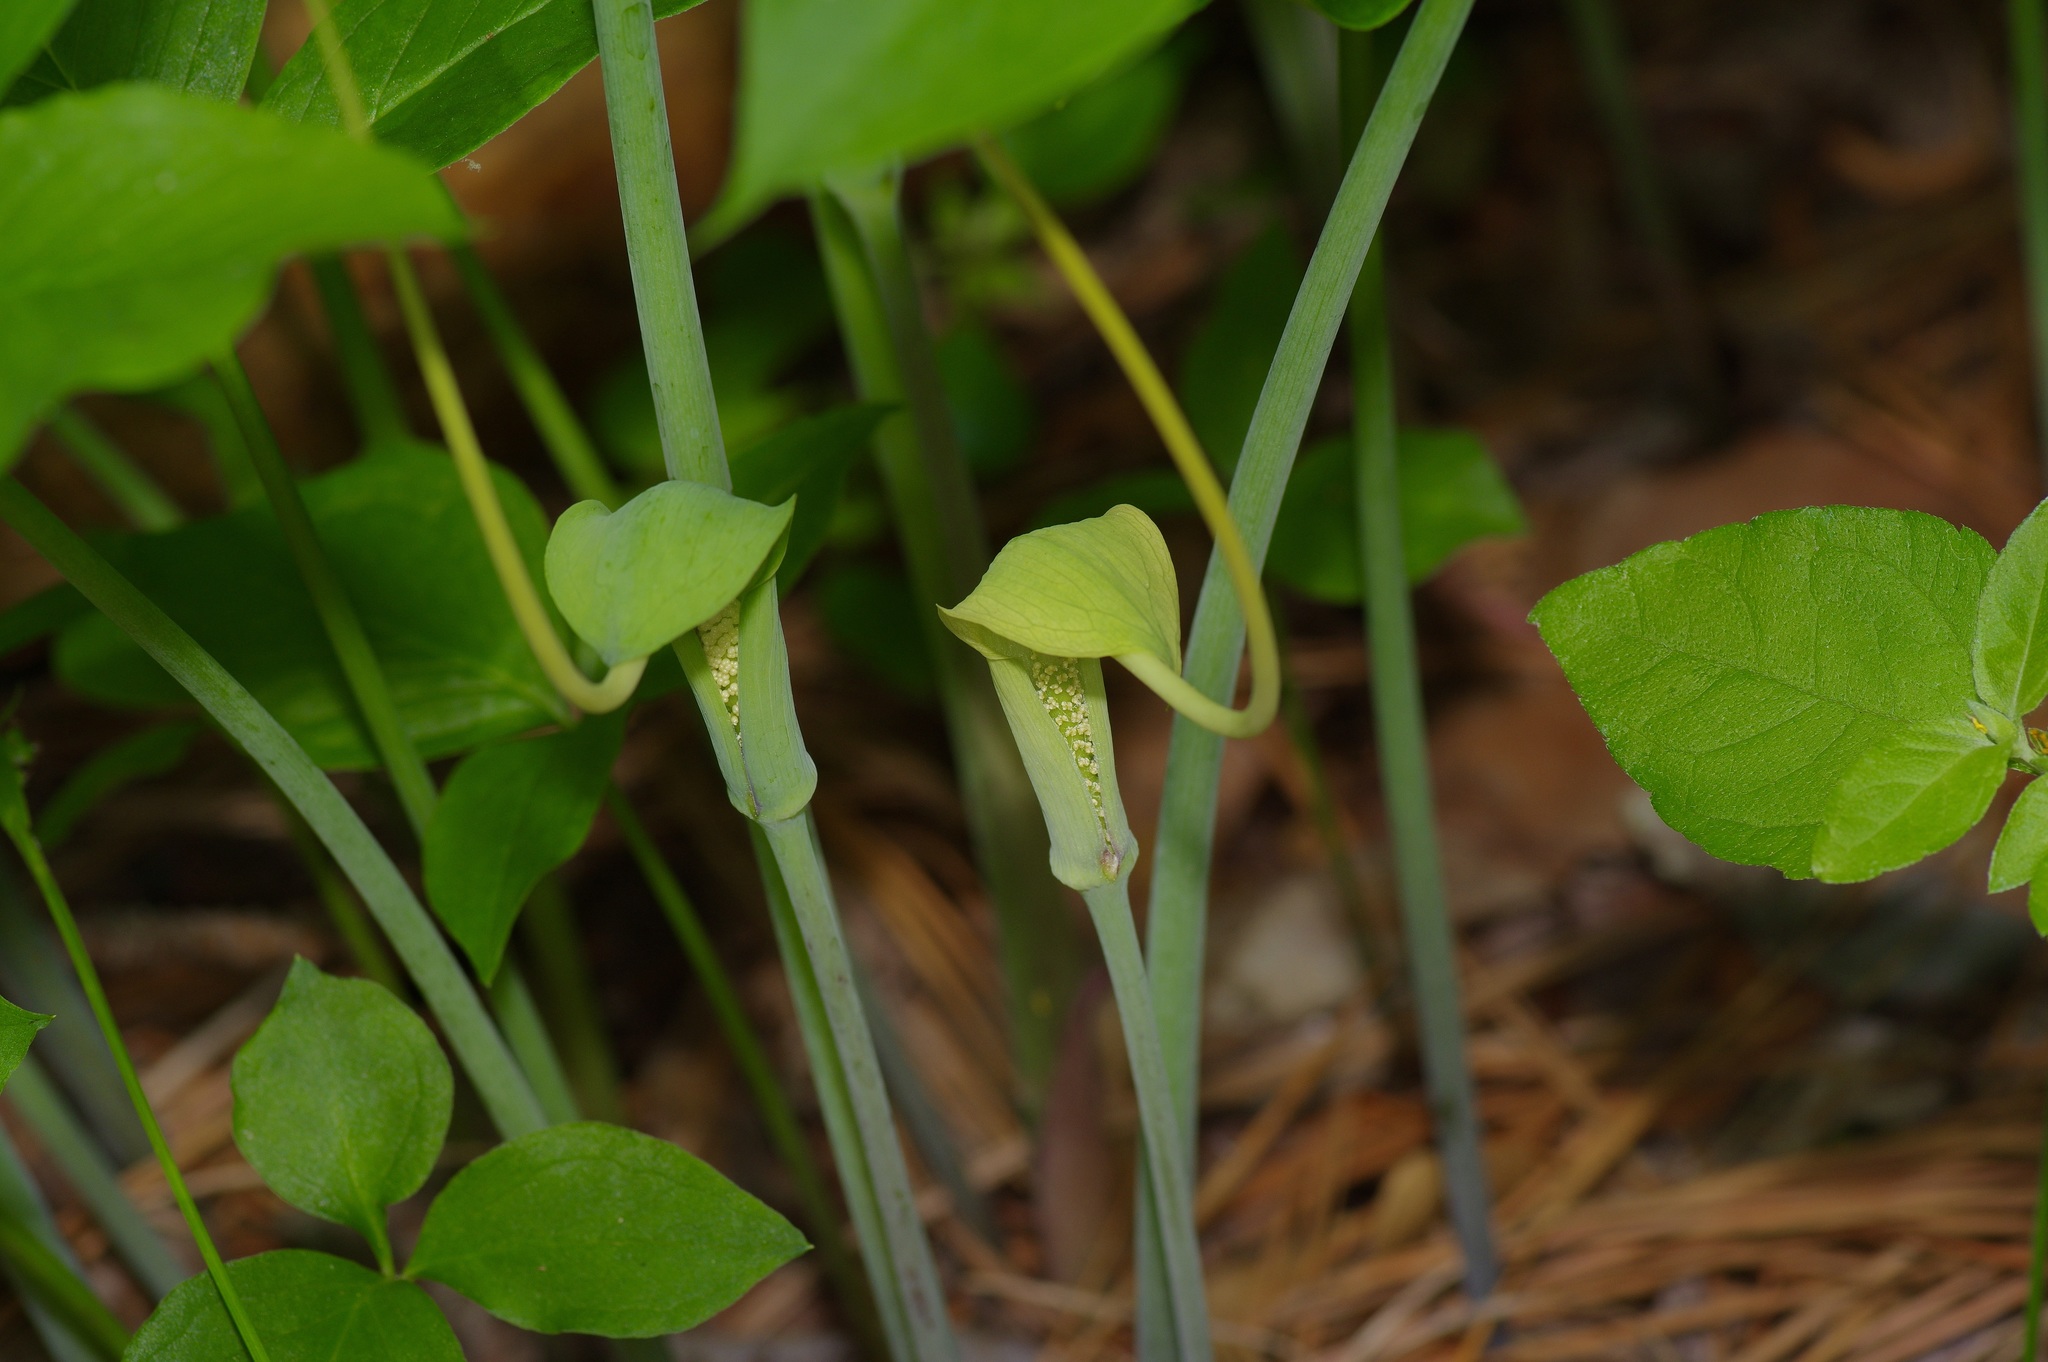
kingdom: Plantae
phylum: Tracheophyta
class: Liliopsida
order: Alismatales
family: Araceae
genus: Arisaema
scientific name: Arisaema dracontium
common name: Dragon-arum
